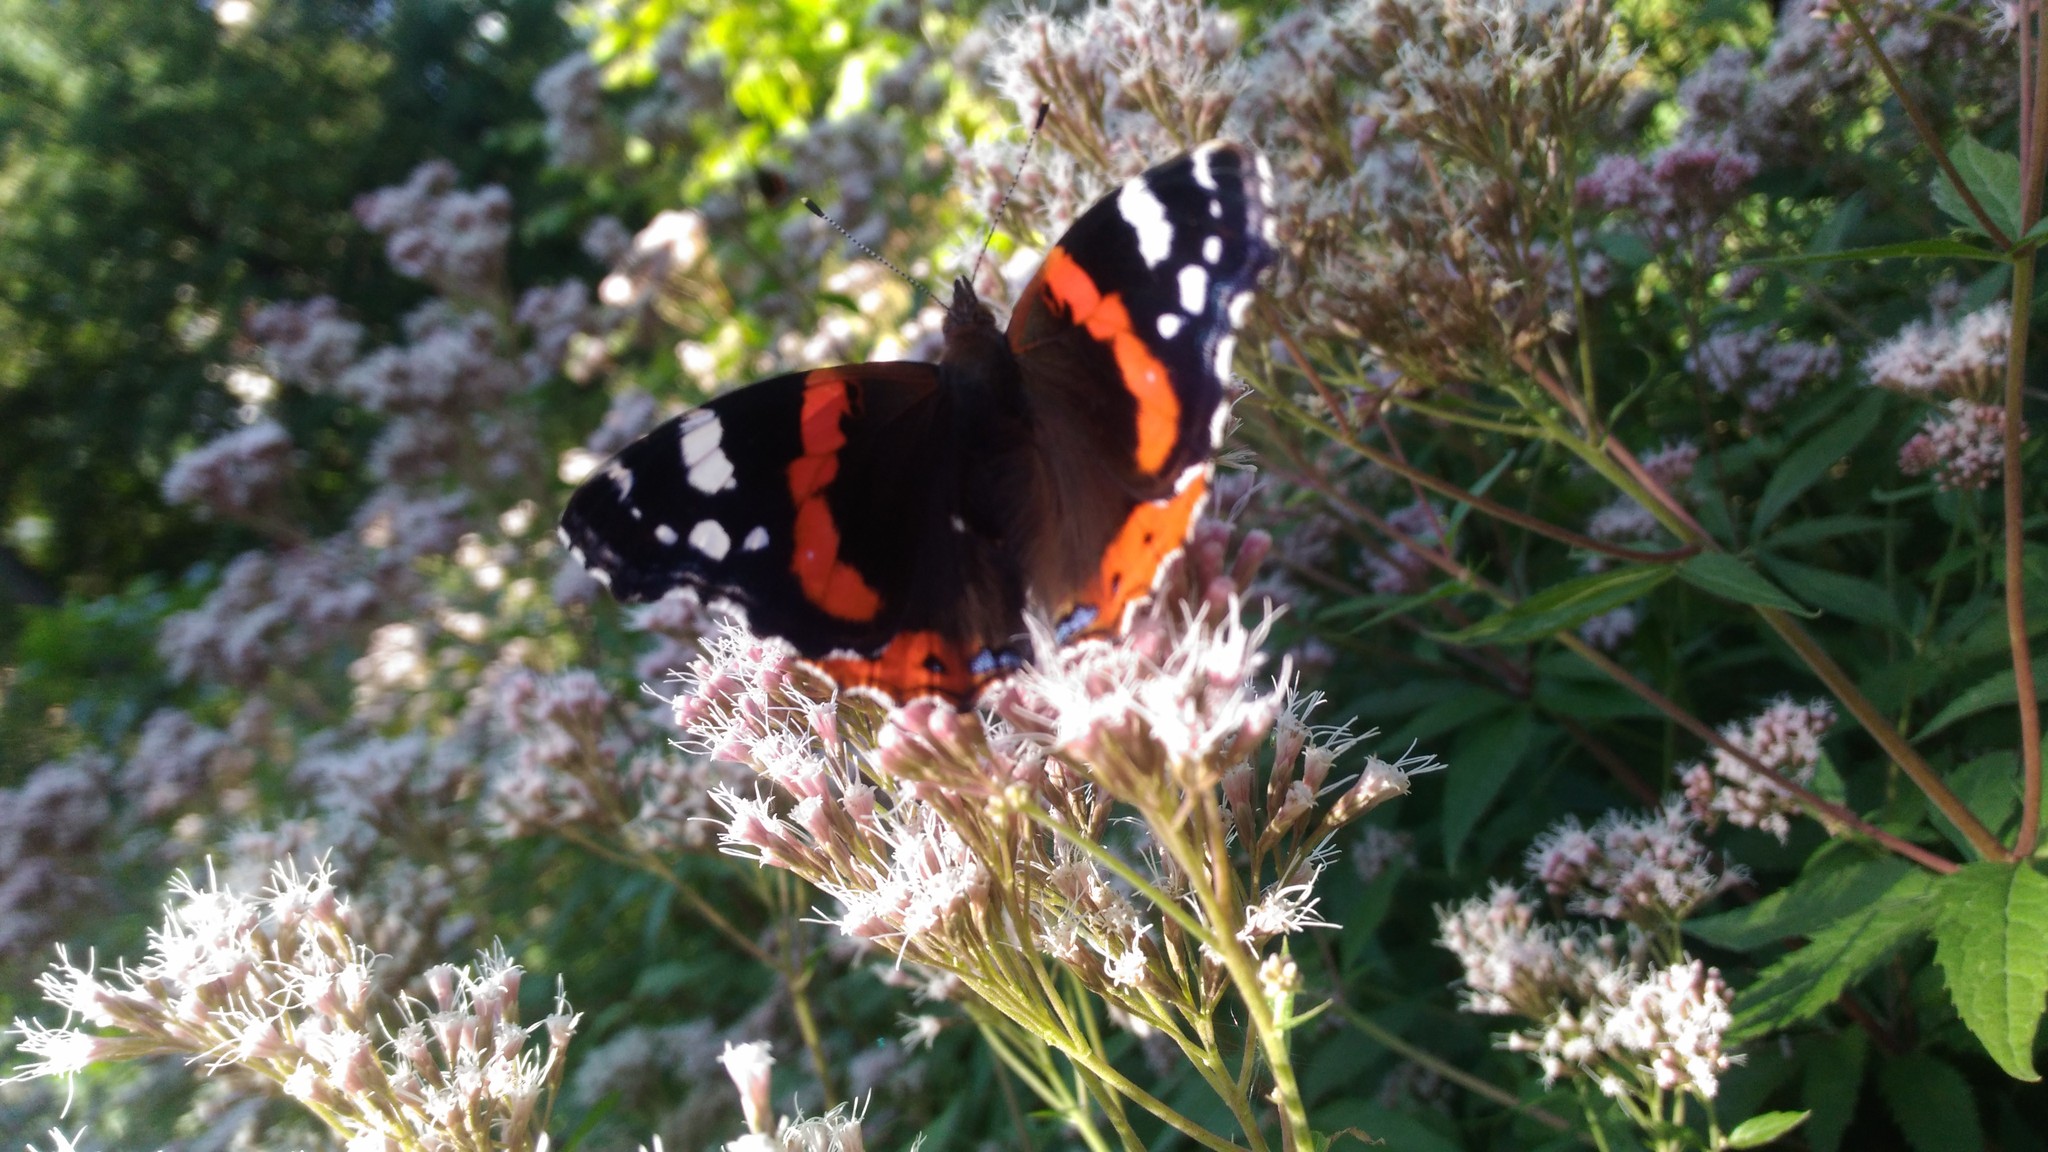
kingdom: Animalia
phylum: Arthropoda
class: Insecta
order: Lepidoptera
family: Nymphalidae
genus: Vanessa
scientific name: Vanessa atalanta
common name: Red admiral
